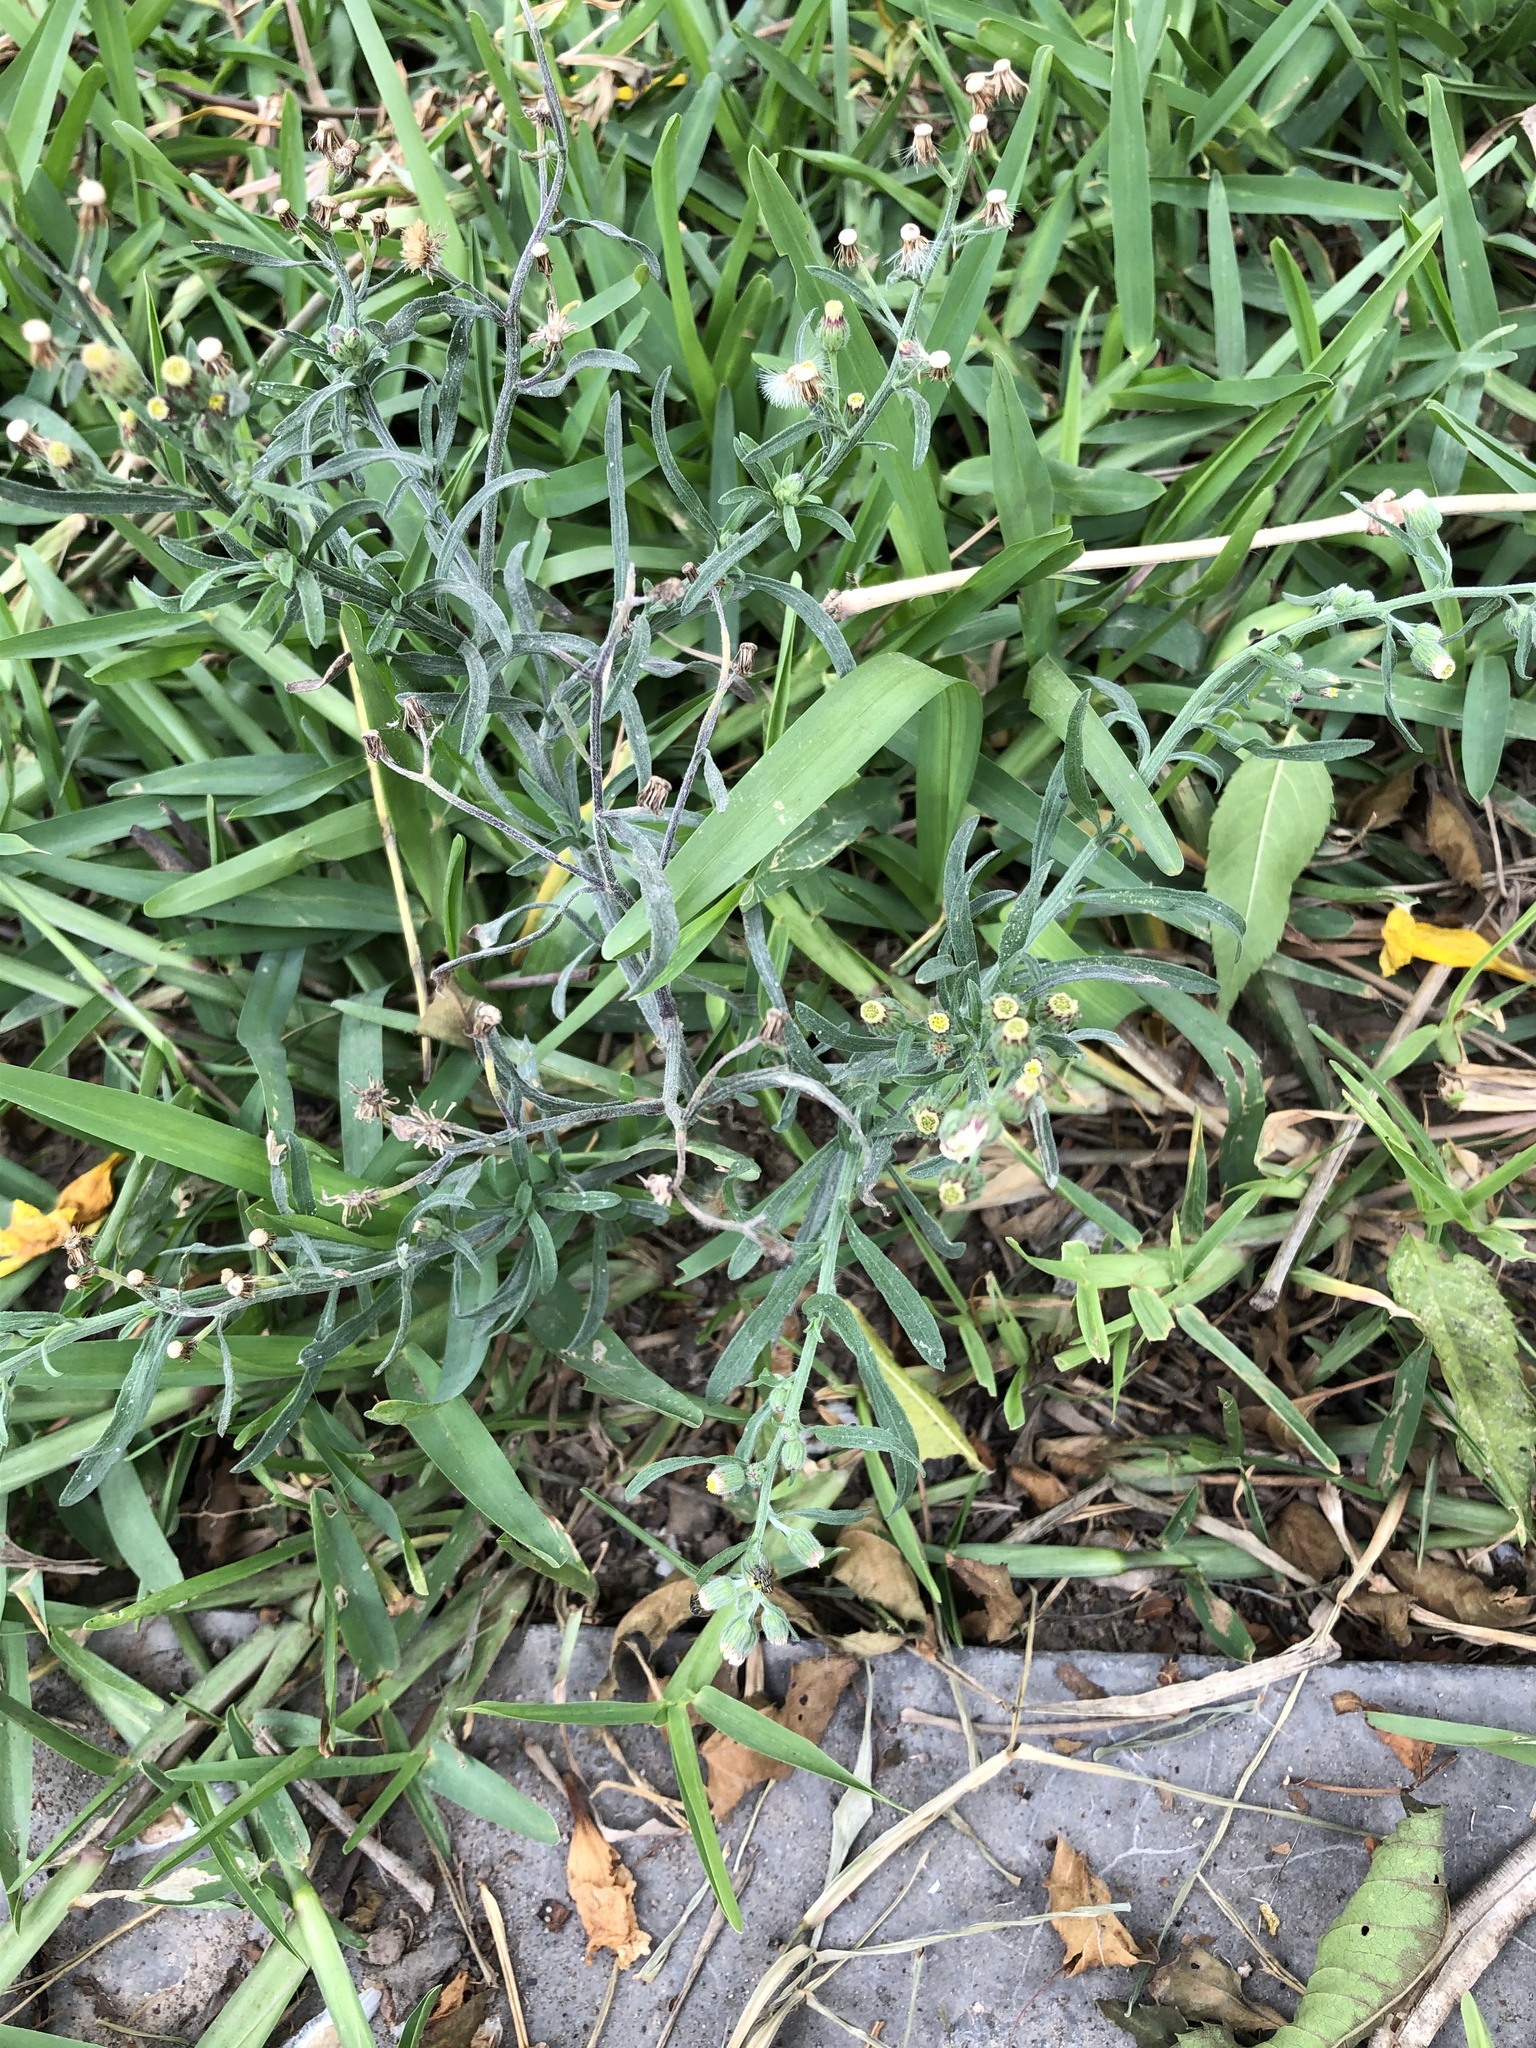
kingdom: Plantae
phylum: Tracheophyta
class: Magnoliopsida
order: Asterales
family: Asteraceae
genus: Erigeron
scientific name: Erigeron bonariensis
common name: Argentine fleabane
